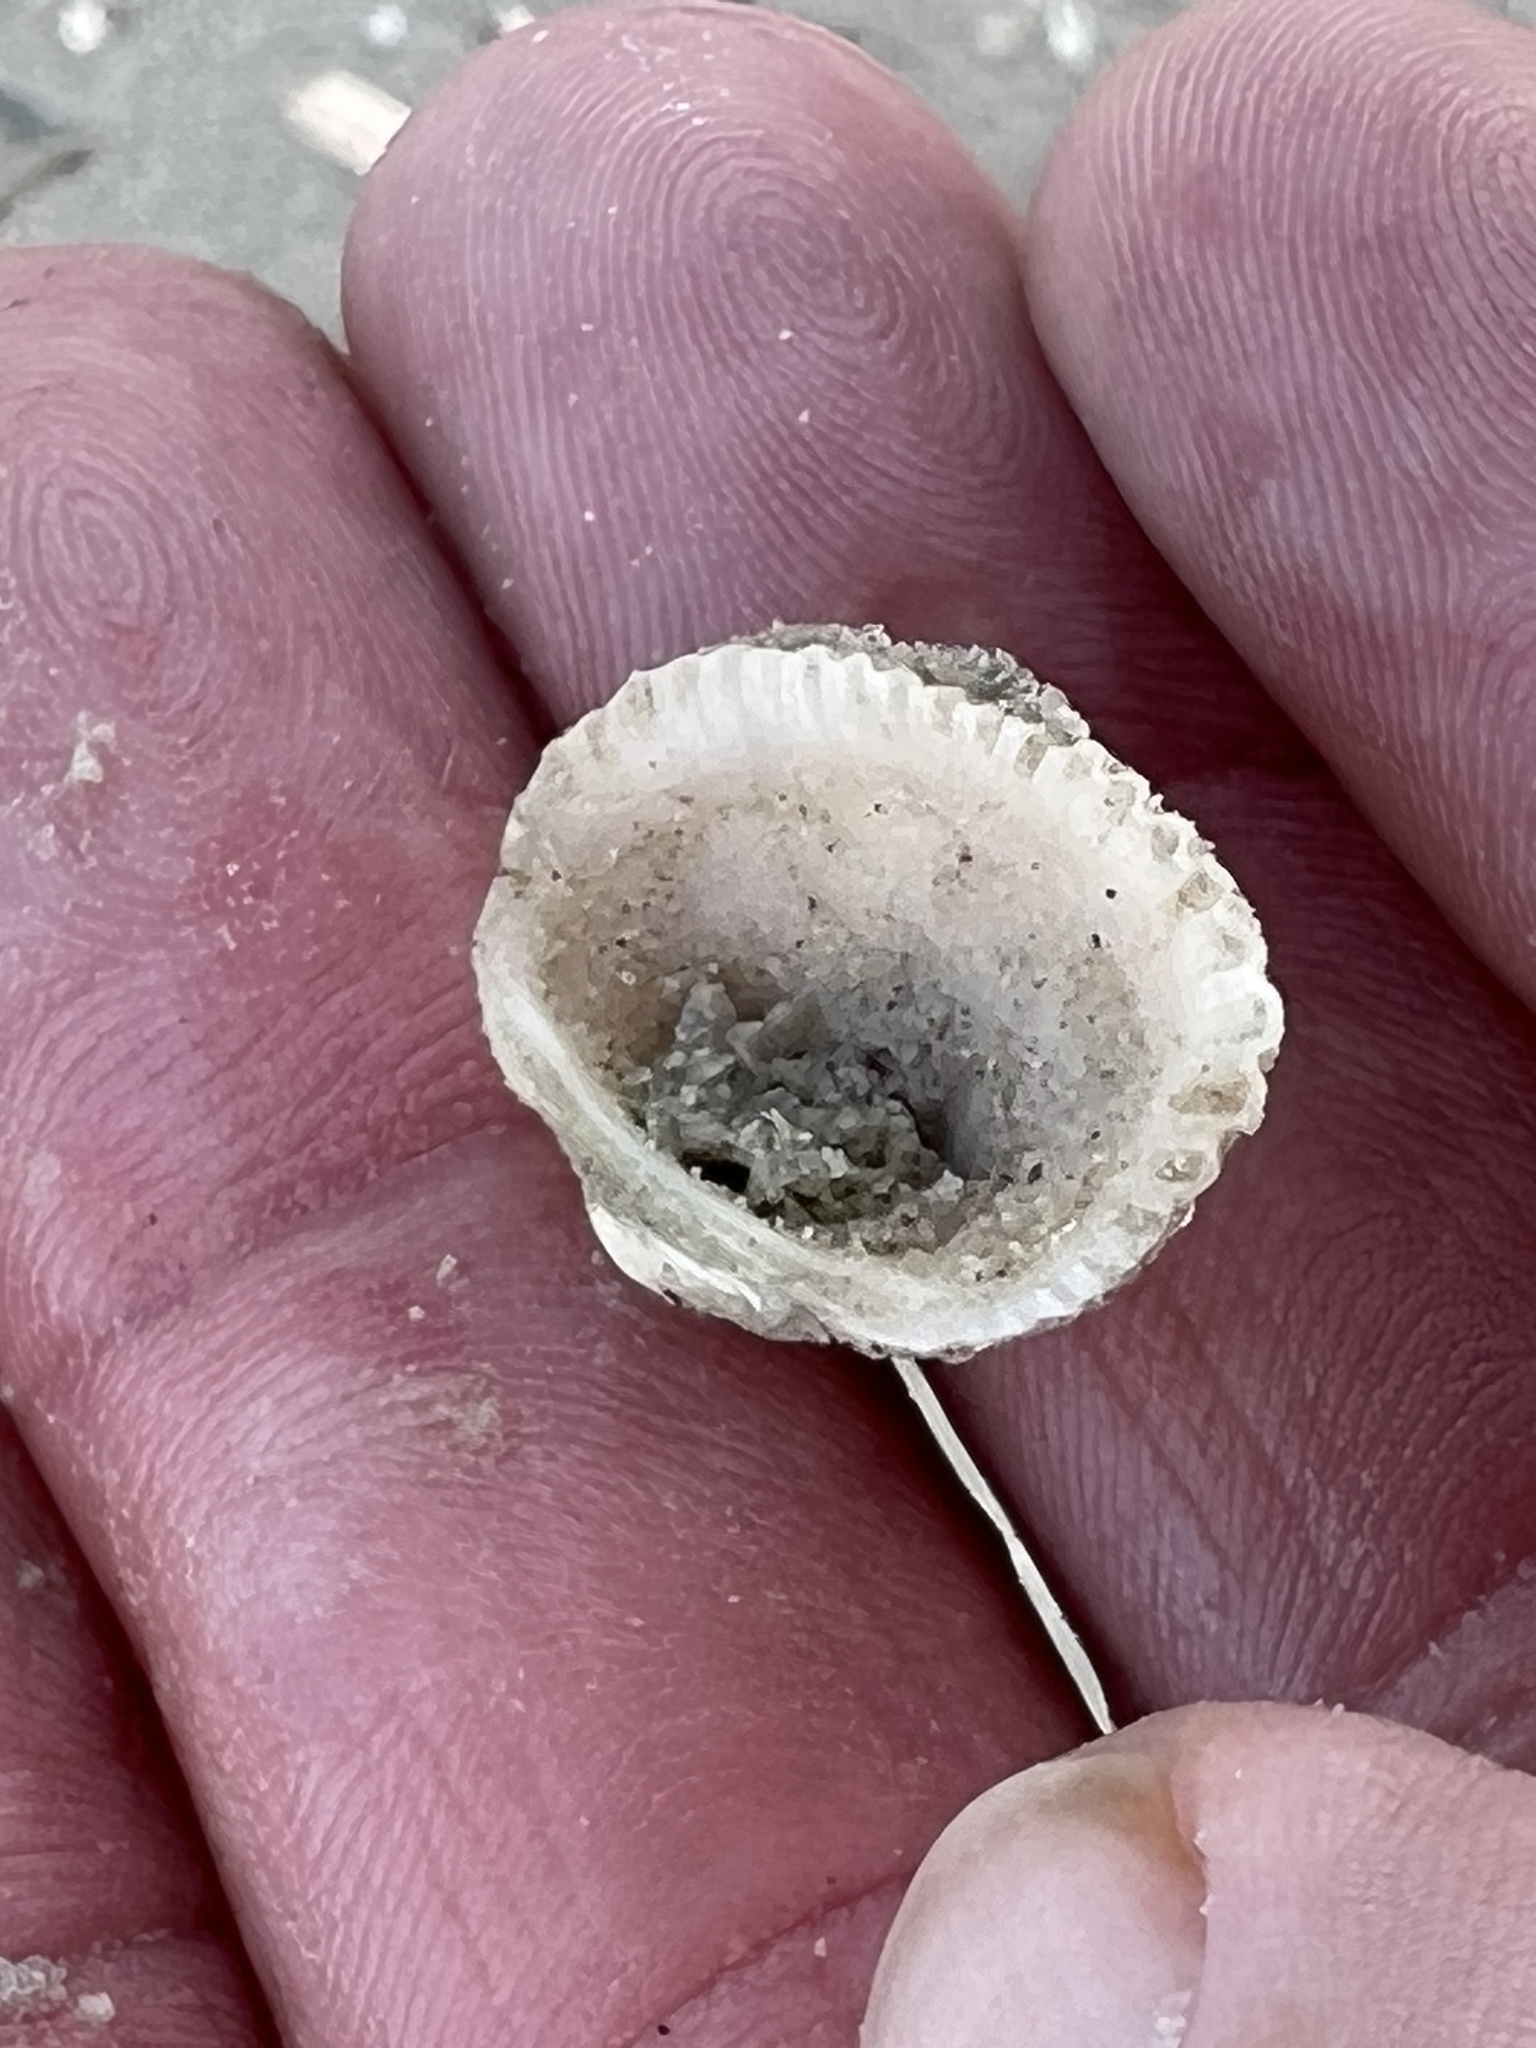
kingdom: Animalia
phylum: Mollusca
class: Bivalvia
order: Arcida
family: Arcidae
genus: Anadara
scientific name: Anadara transversa
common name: Transverse ark
